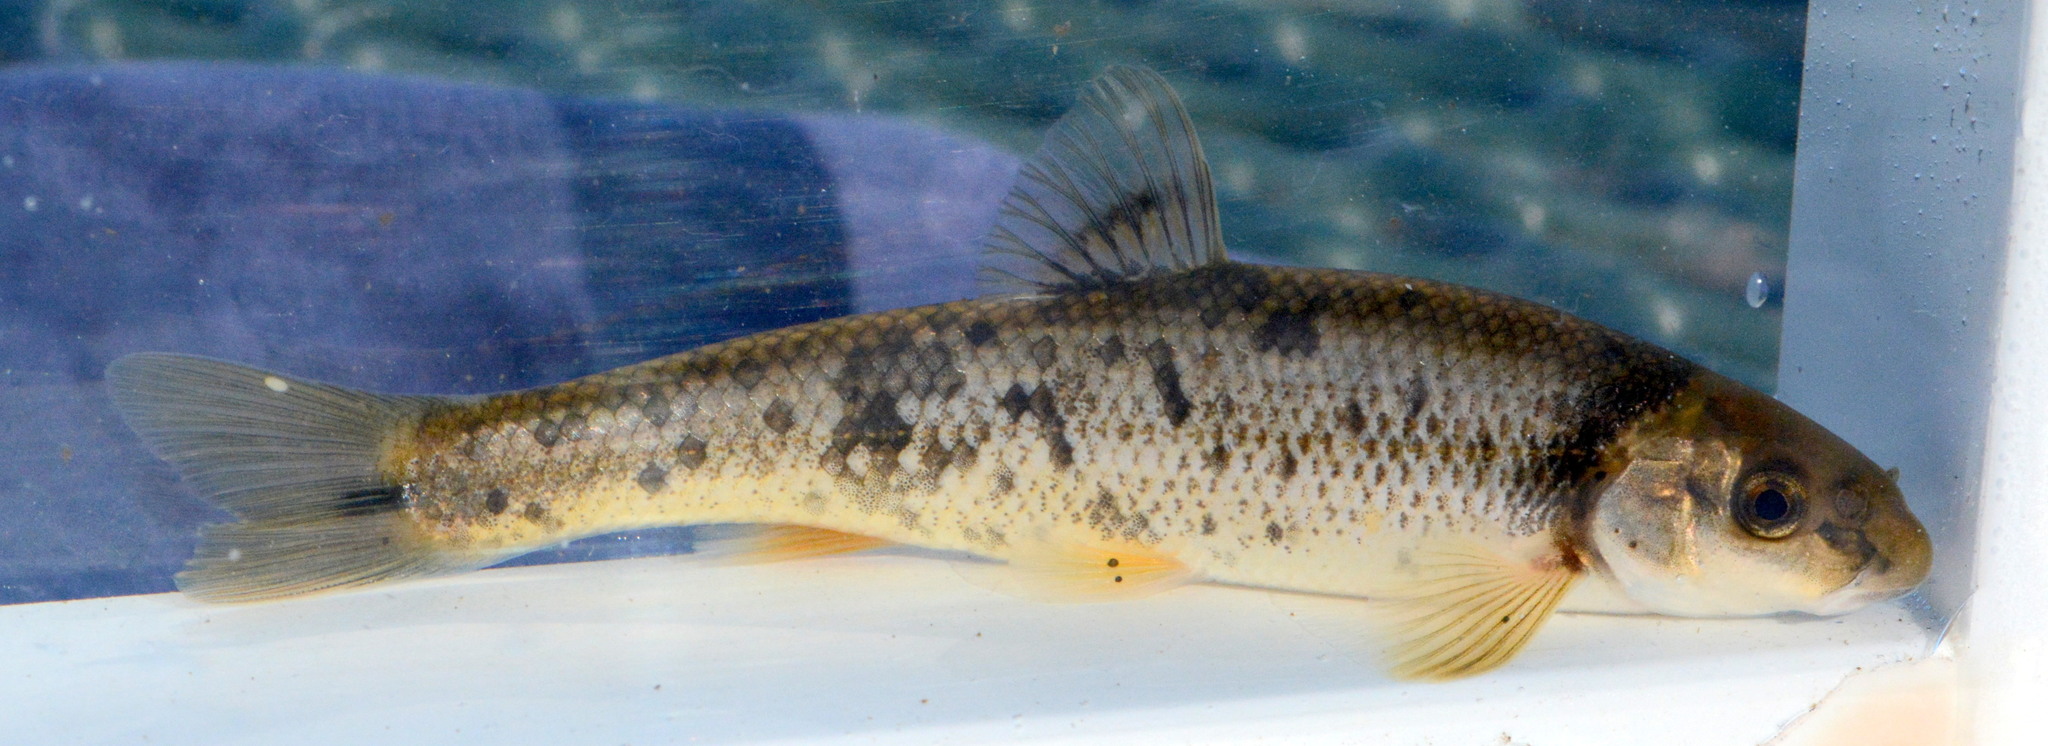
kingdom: Animalia
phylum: Chordata
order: Cypriniformes
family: Cyprinidae
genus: Campostoma
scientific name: Campostoma anomalum
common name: Central stoneroller
